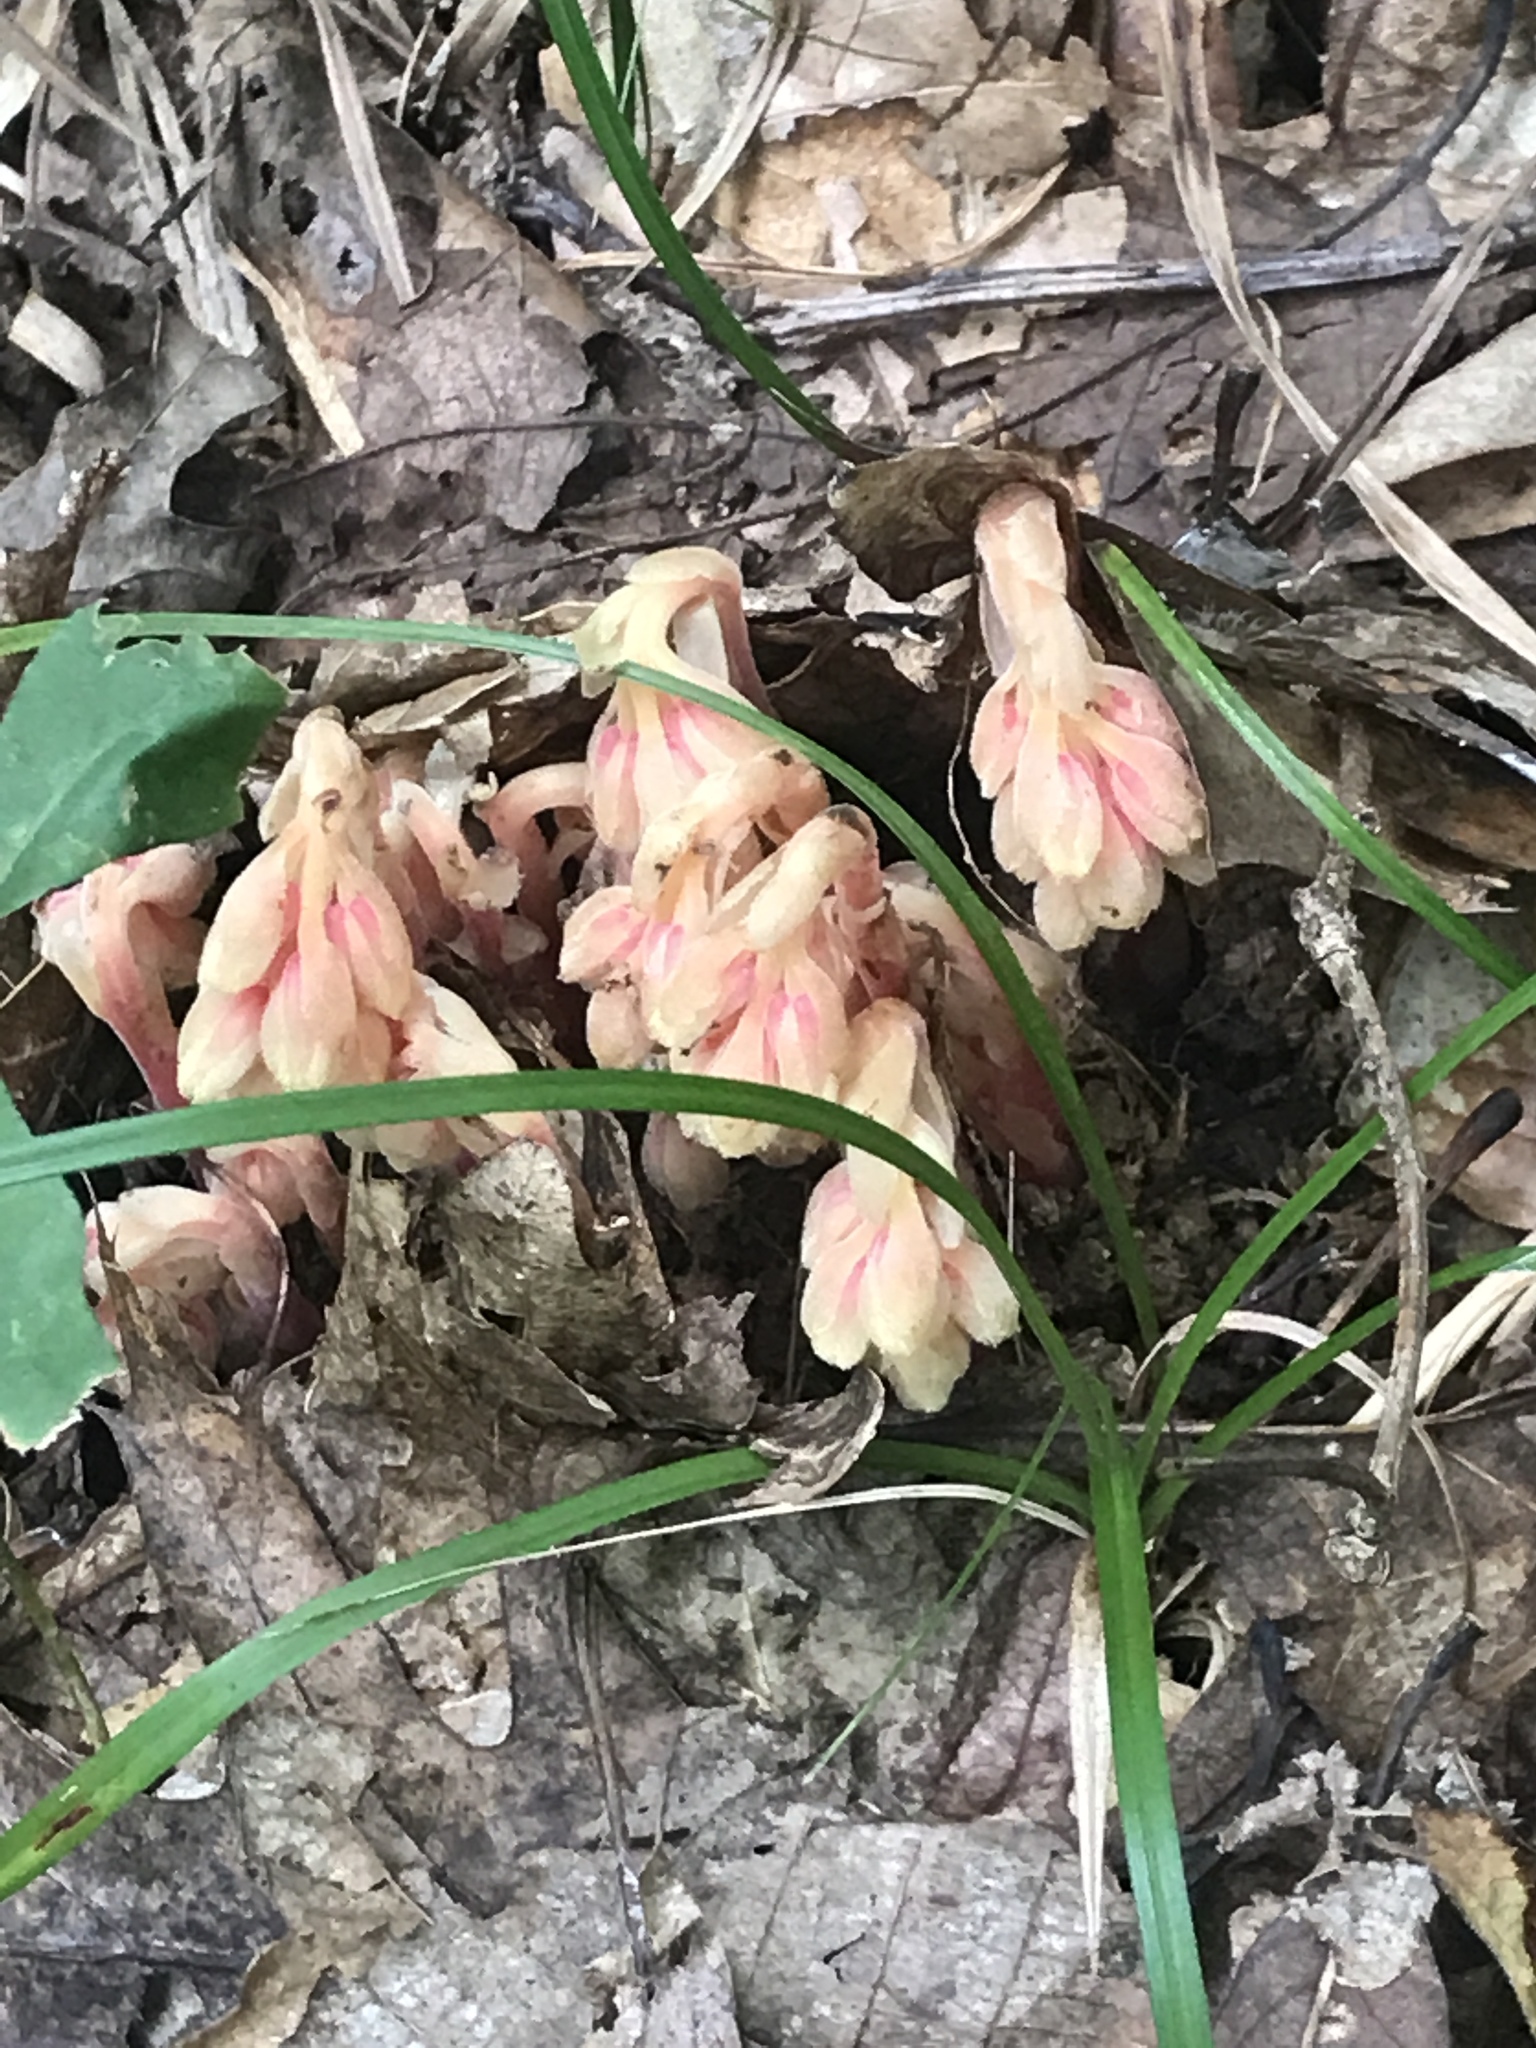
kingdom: Plantae
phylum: Tracheophyta
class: Magnoliopsida
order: Ericales
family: Ericaceae
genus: Hypopitys
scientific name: Hypopitys monotropa
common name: Yellow bird's-nest
